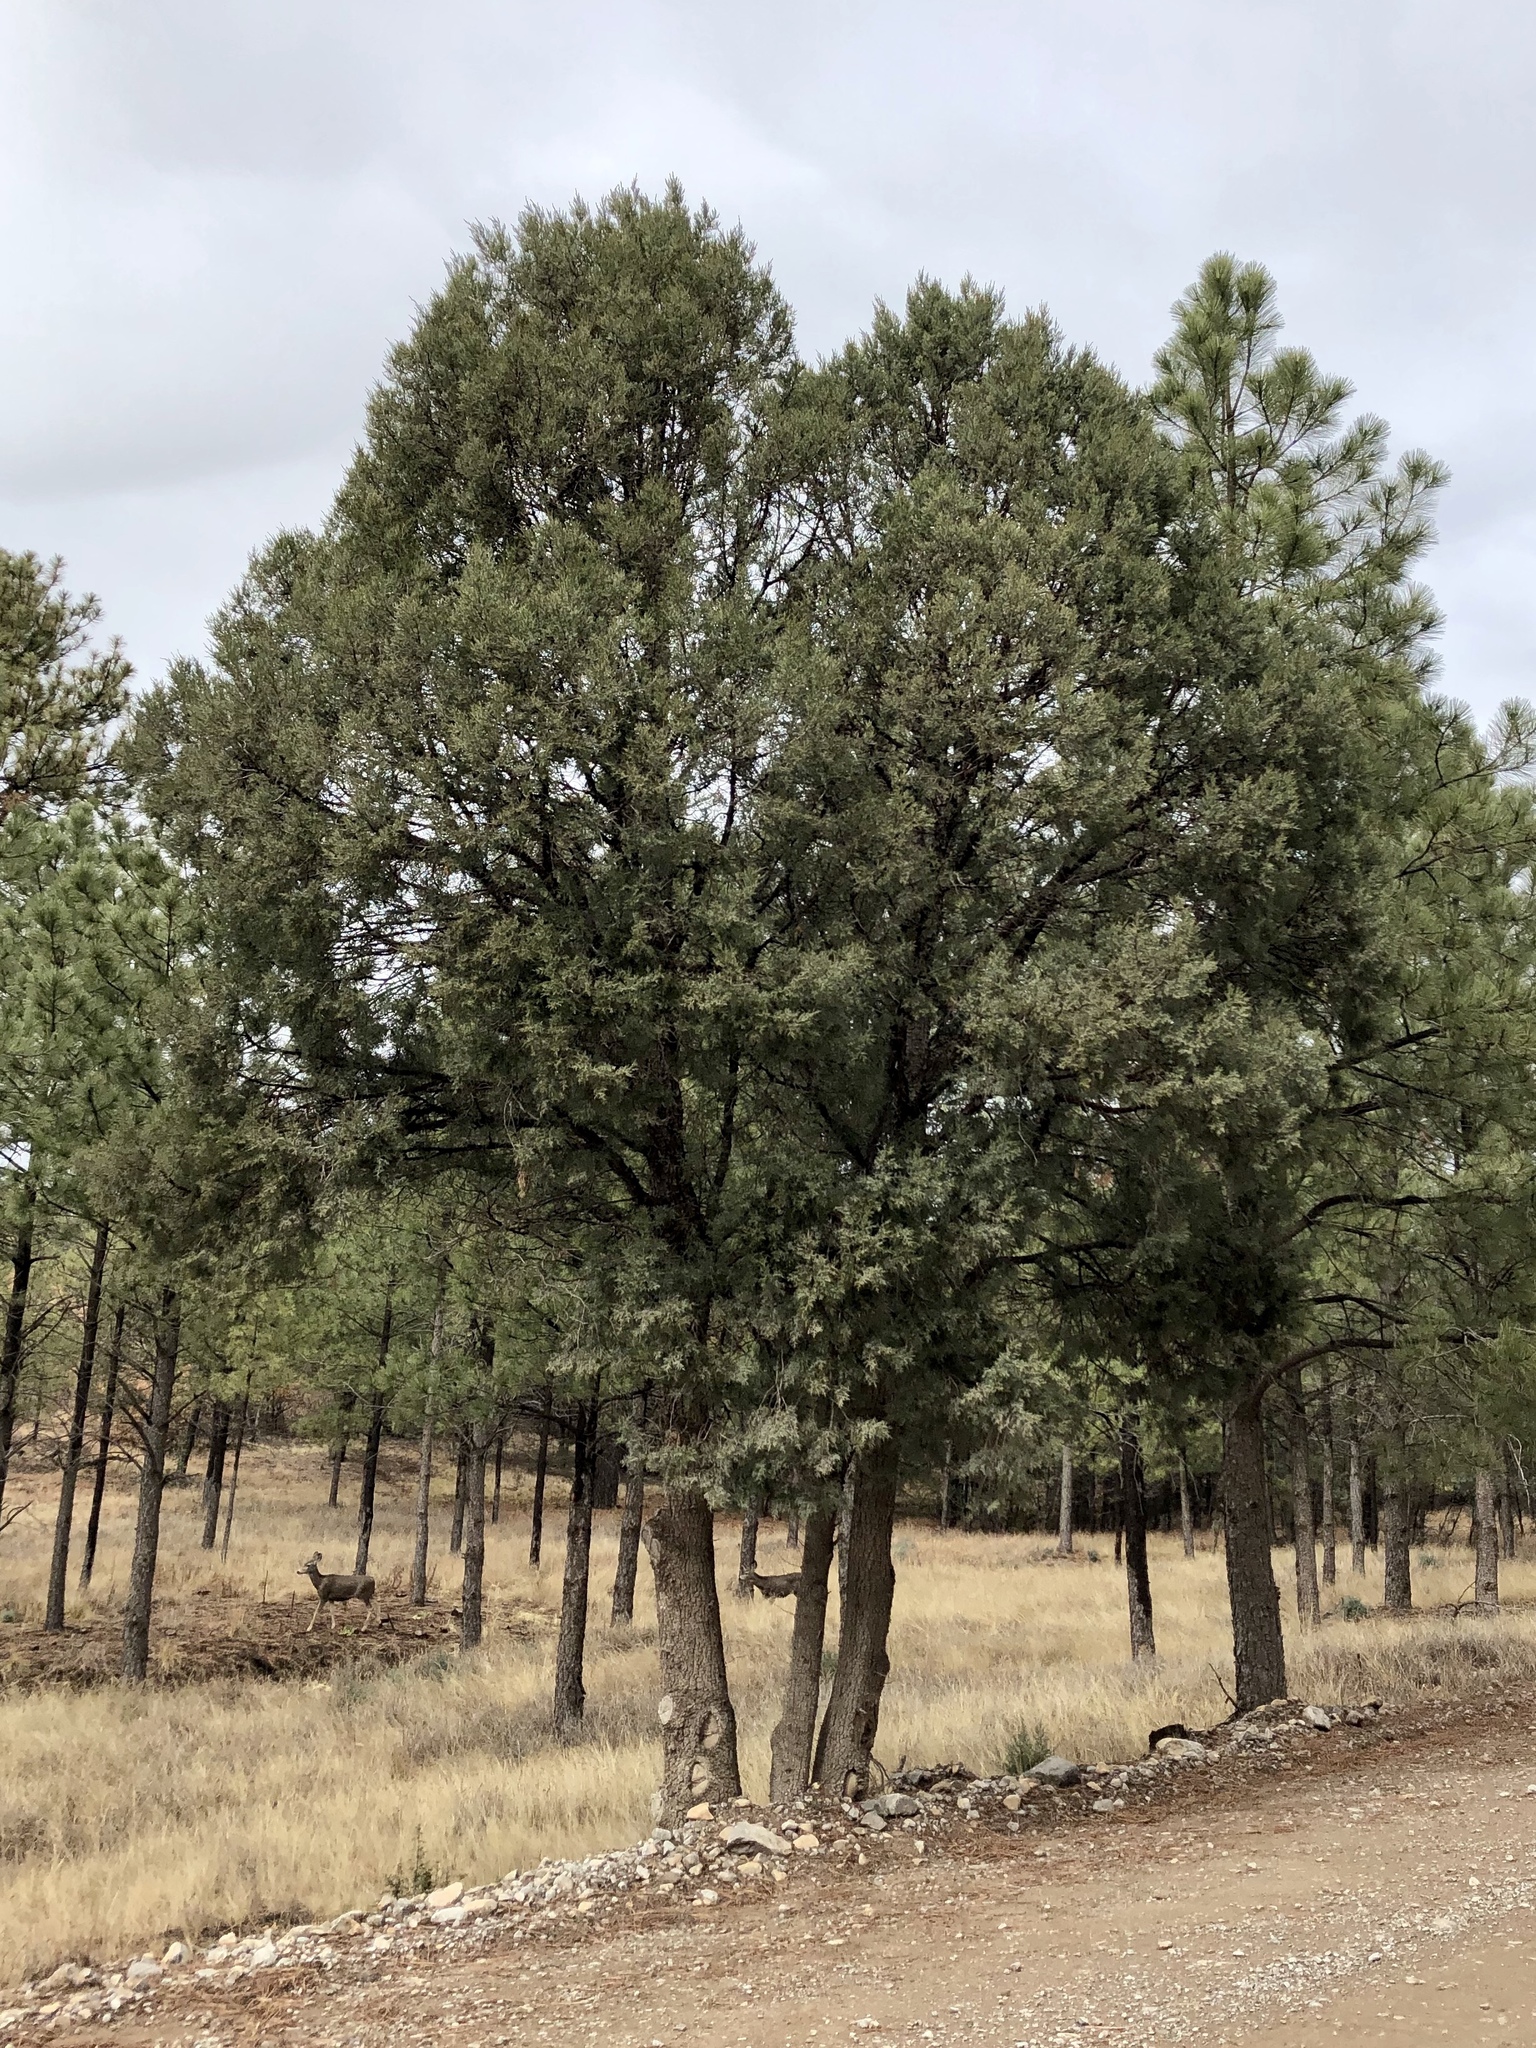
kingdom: Plantae
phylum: Tracheophyta
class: Pinopsida
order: Pinales
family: Cupressaceae
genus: Juniperus
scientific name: Juniperus deppeana
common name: Alligator juniper
